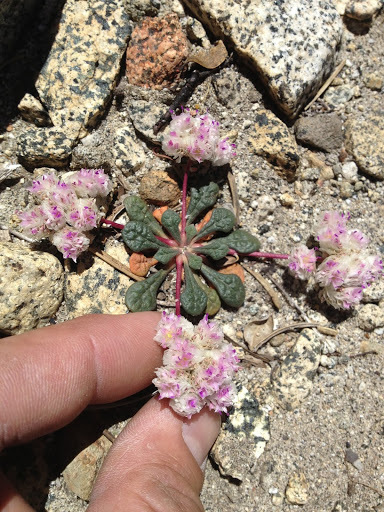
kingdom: Plantae
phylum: Tracheophyta
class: Magnoliopsida
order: Caryophyllales
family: Montiaceae
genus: Calyptridium
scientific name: Calyptridium monospermum
